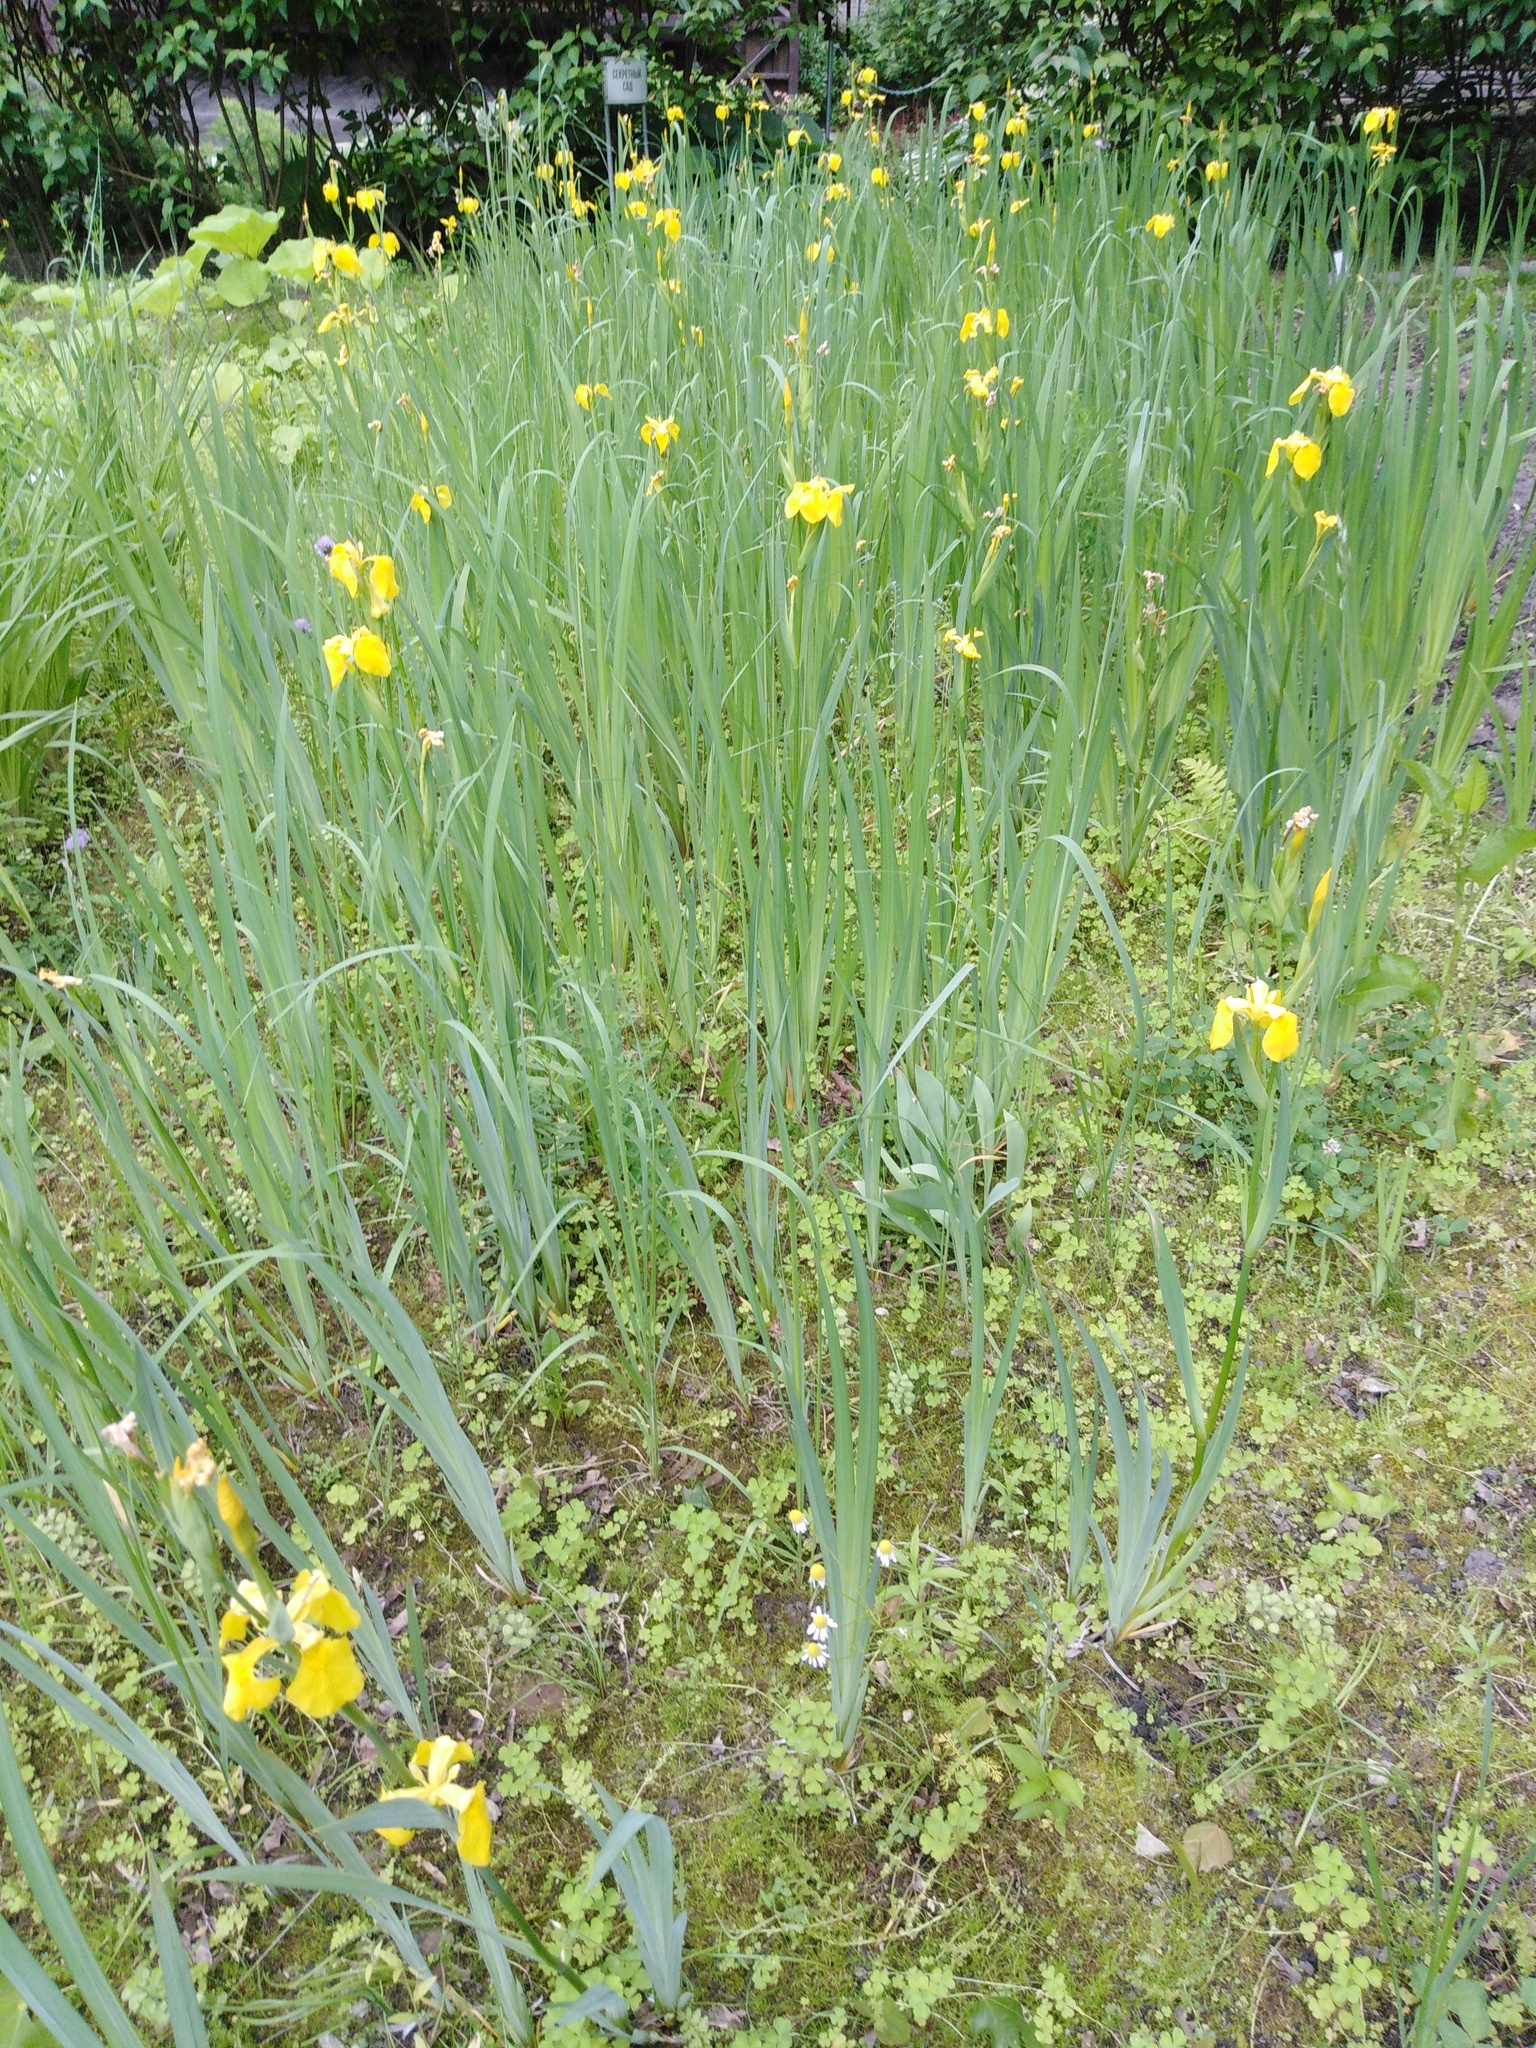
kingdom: Plantae
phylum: Tracheophyta
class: Liliopsida
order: Asparagales
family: Iridaceae
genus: Iris
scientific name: Iris pseudacorus
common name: Yellow flag
